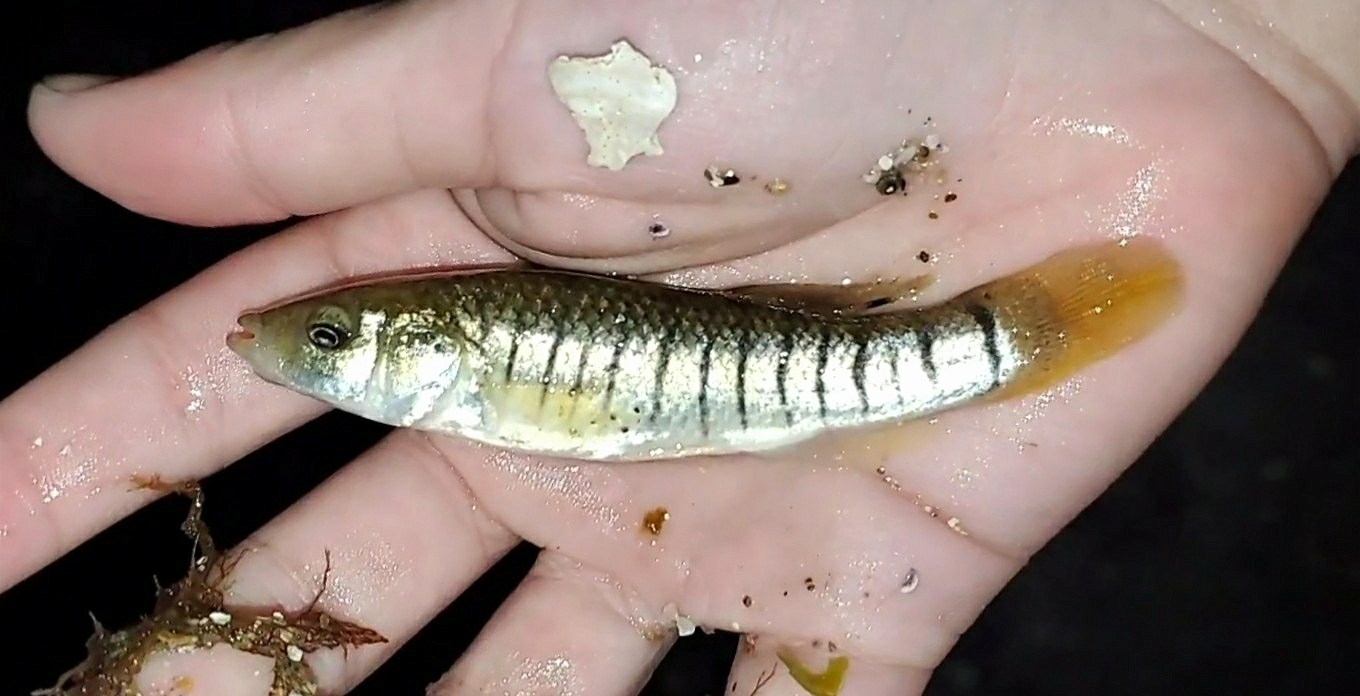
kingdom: Animalia
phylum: Chordata
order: Cyprinodontiformes
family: Fundulidae
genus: Fundulus
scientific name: Fundulus majalis
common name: Striped killifish
